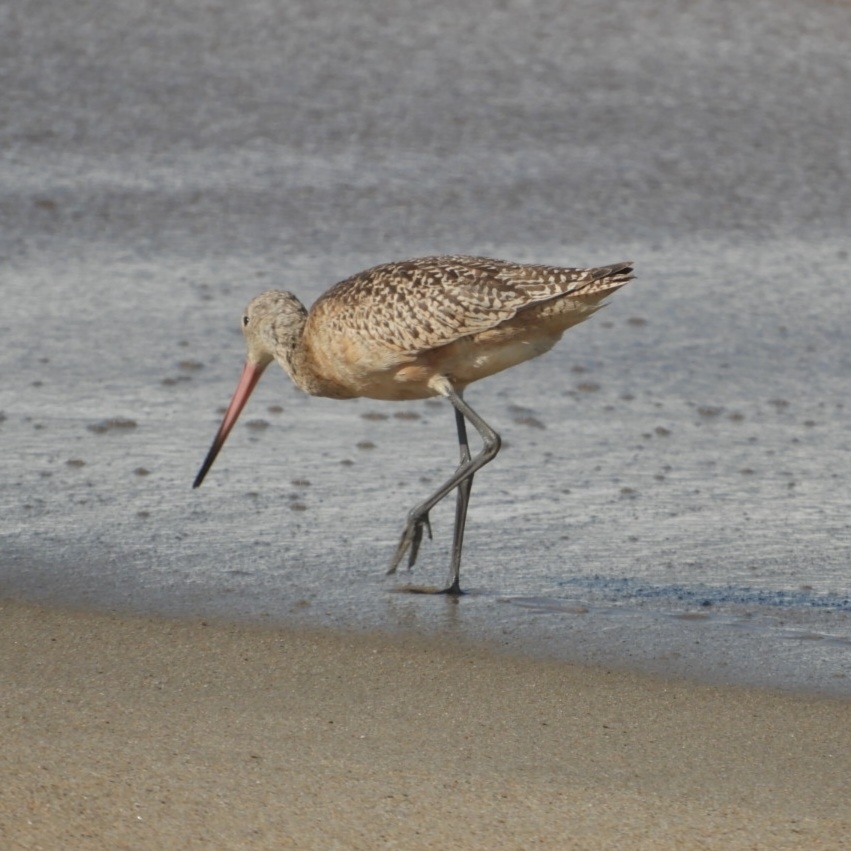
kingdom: Animalia
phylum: Chordata
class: Aves
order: Charadriiformes
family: Scolopacidae
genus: Limosa
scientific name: Limosa fedoa
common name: Marbled godwit
